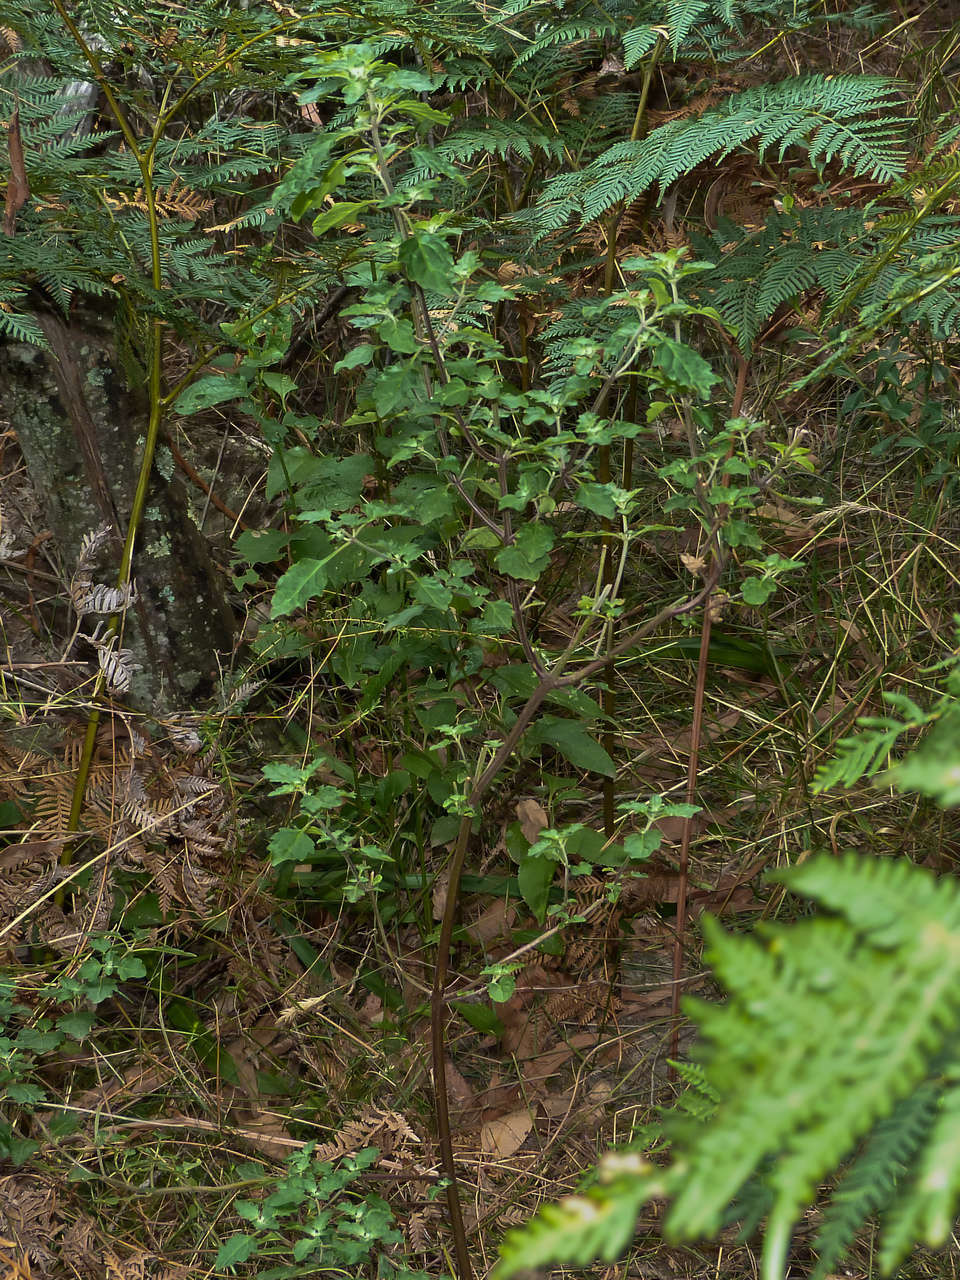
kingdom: Plantae
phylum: Tracheophyta
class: Magnoliopsida
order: Lamiales
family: Lamiaceae
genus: Prostanthera
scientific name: Prostanthera melissifolia
